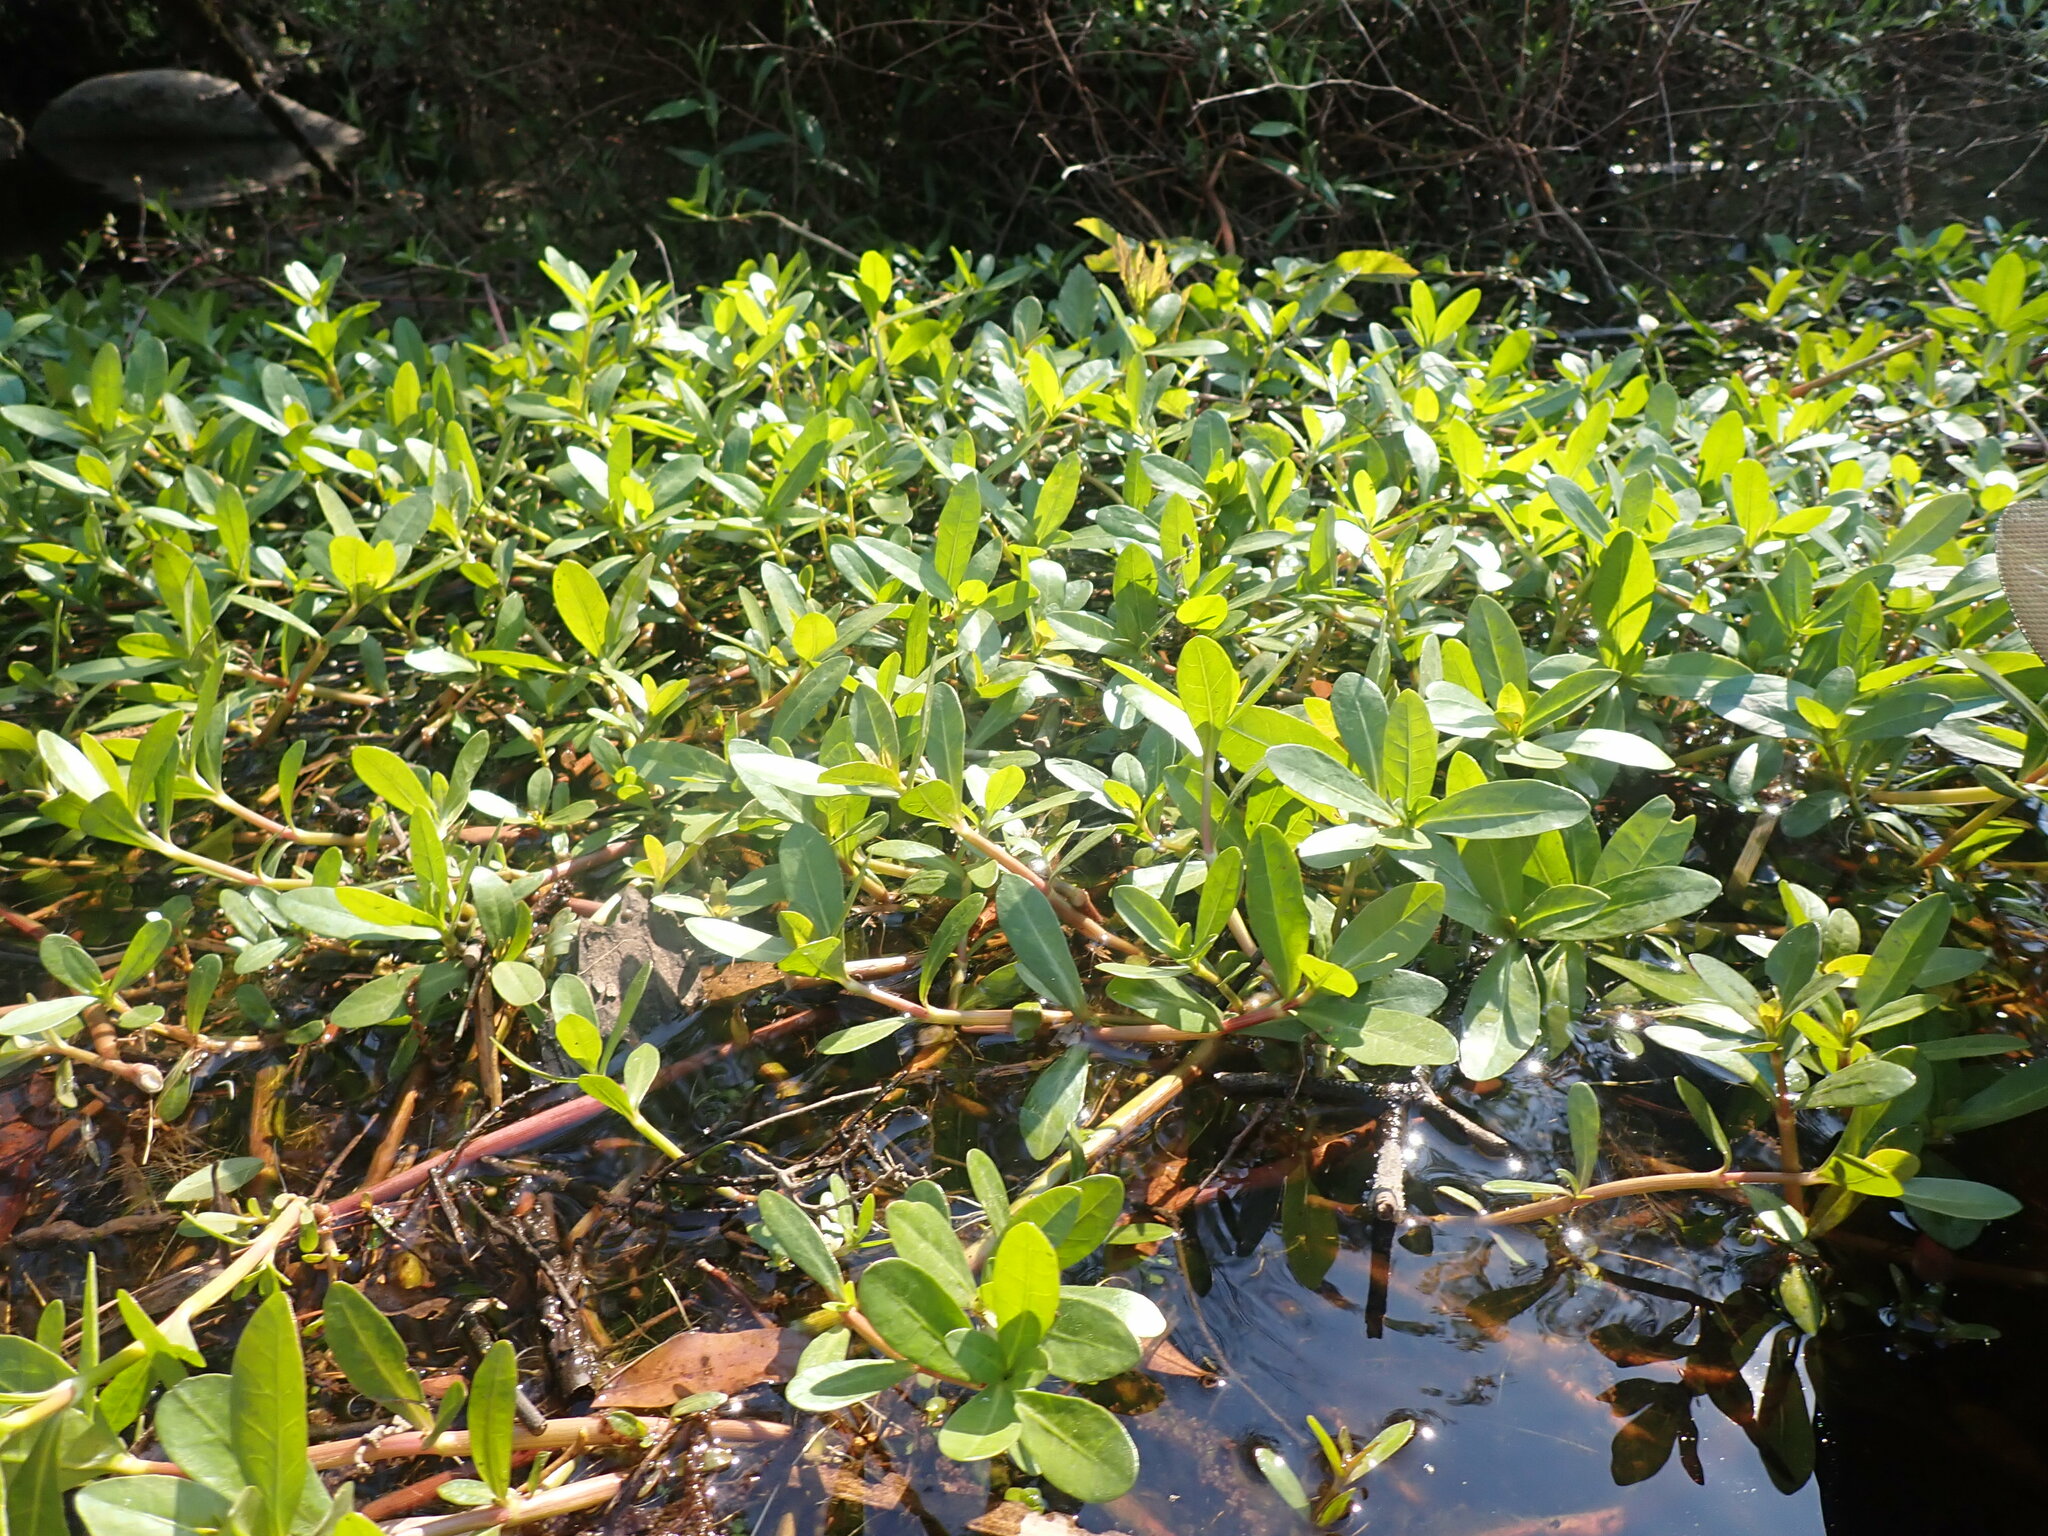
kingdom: Plantae
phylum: Tracheophyta
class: Magnoliopsida
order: Caryophyllales
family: Amaranthaceae
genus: Alternanthera
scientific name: Alternanthera philoxeroides
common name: Alligatorweed
